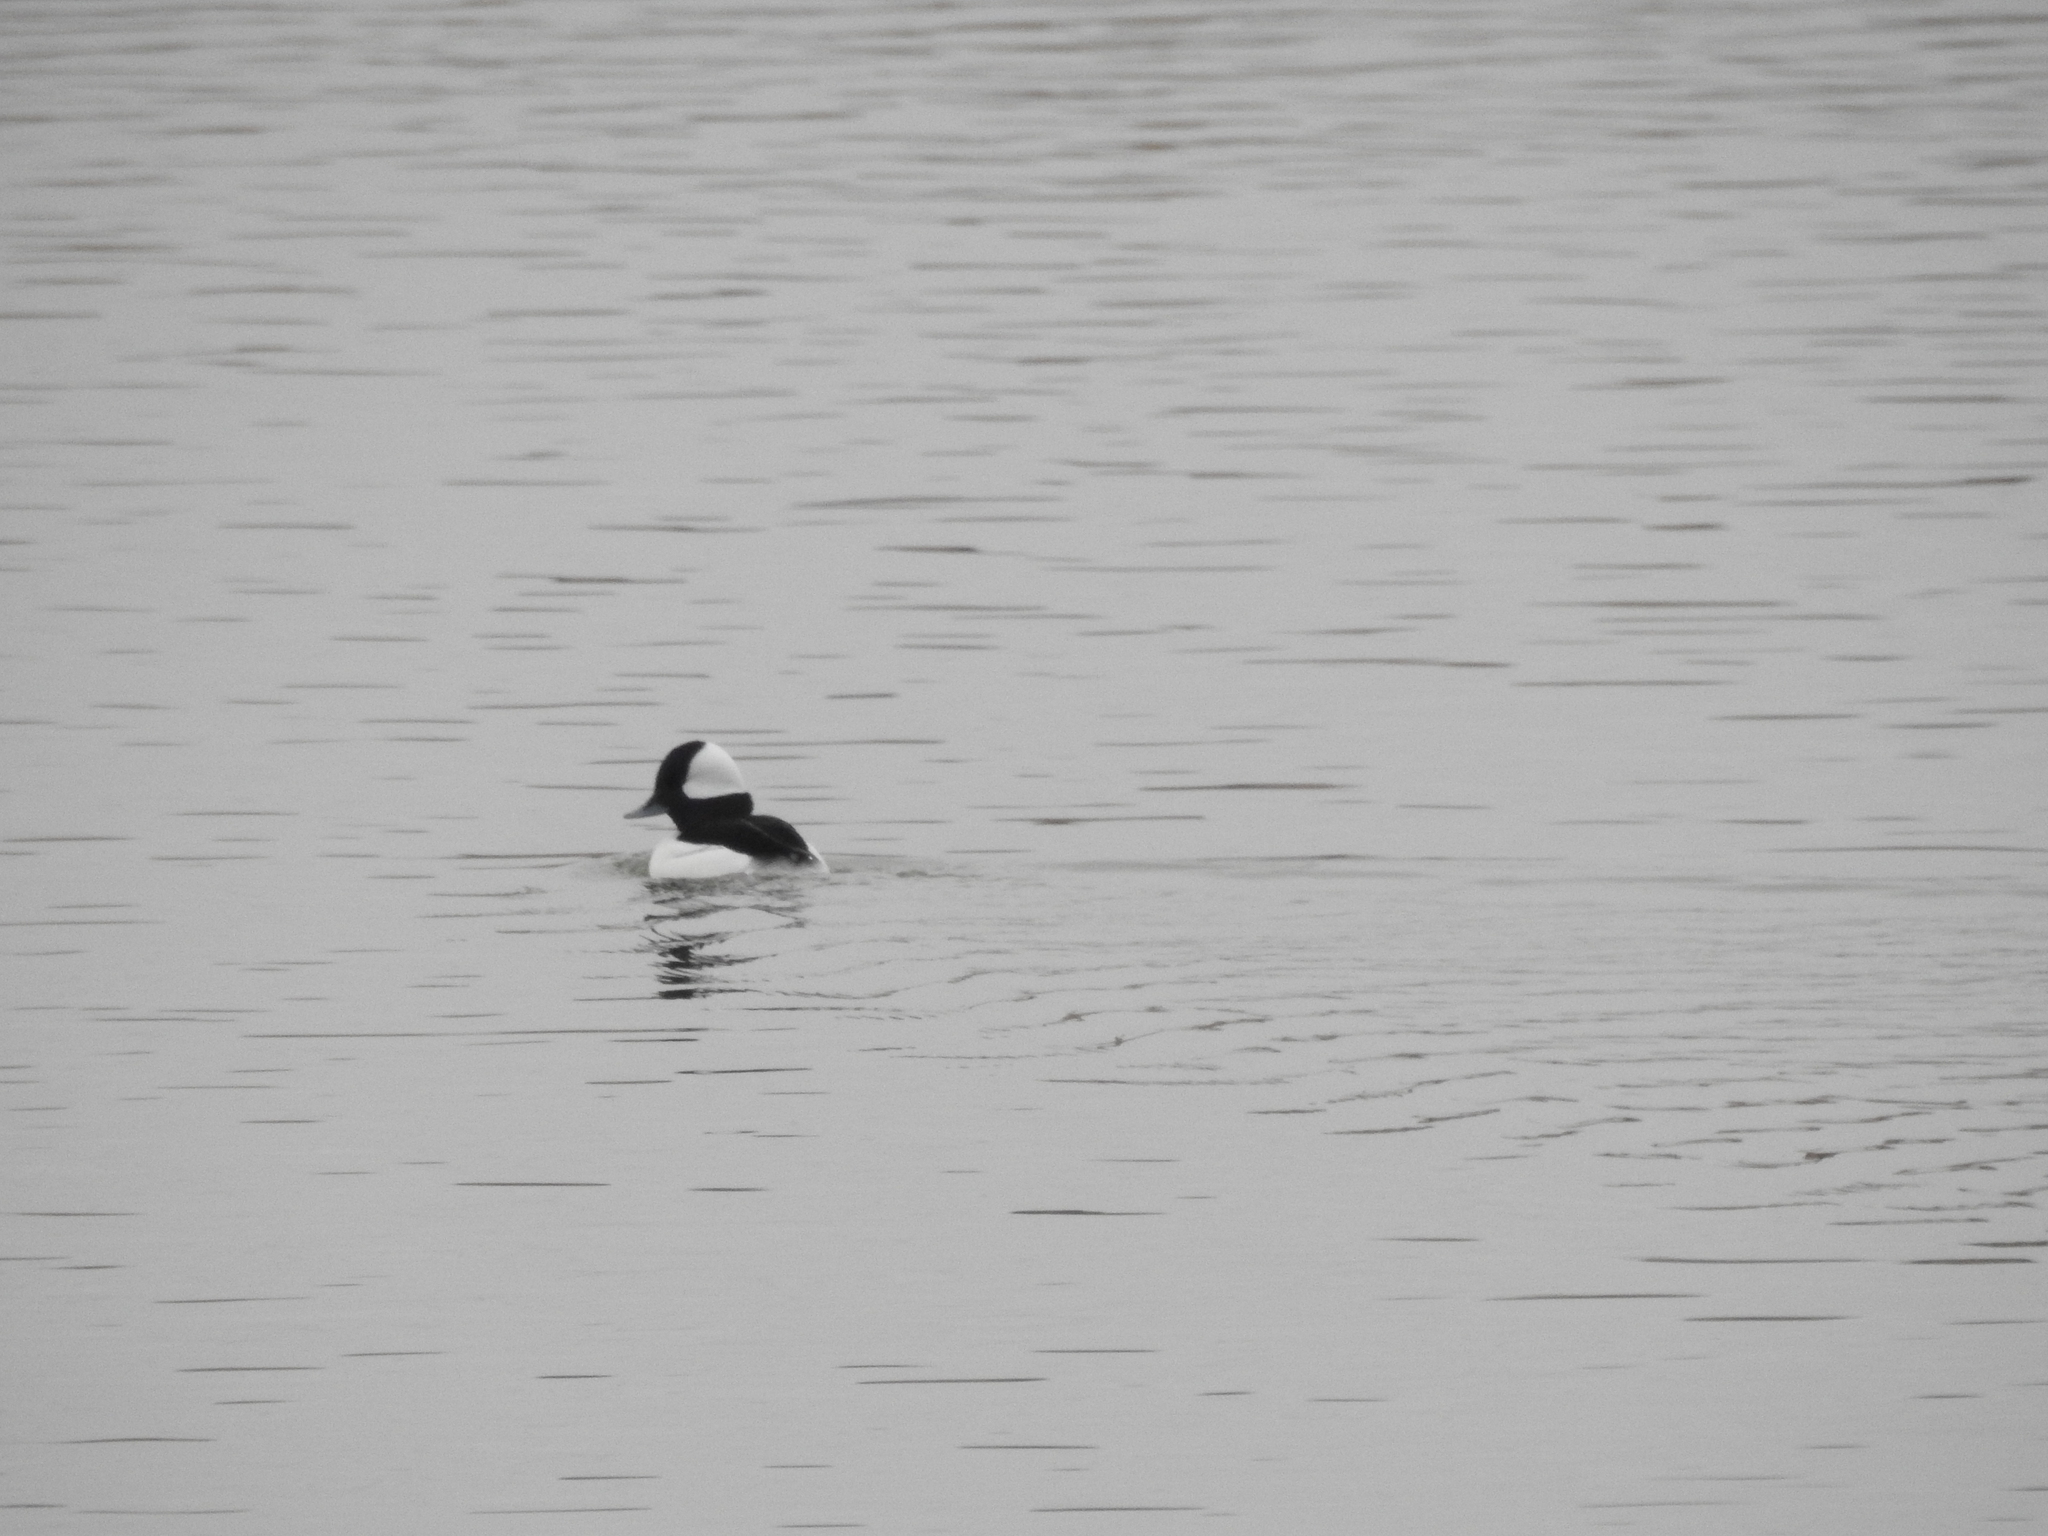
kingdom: Animalia
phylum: Chordata
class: Aves
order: Anseriformes
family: Anatidae
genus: Bucephala
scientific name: Bucephala albeola
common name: Bufflehead
